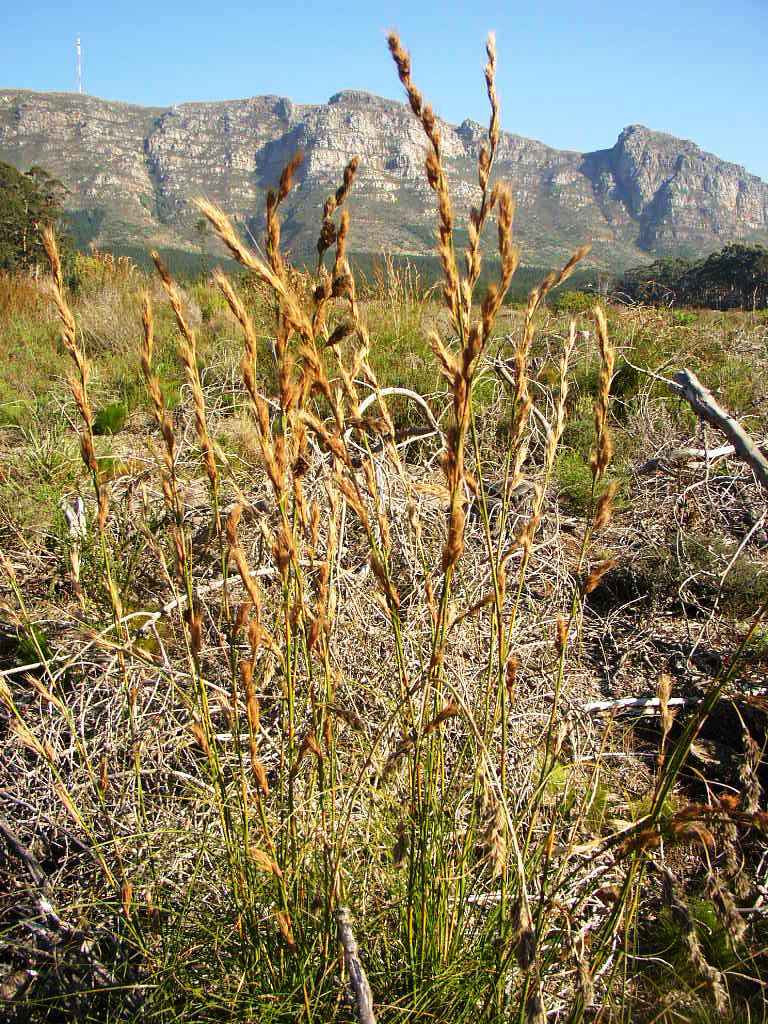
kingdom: Plantae
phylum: Tracheophyta
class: Liliopsida
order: Poales
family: Cyperaceae
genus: Tetraria
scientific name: Tetraria bromoides
